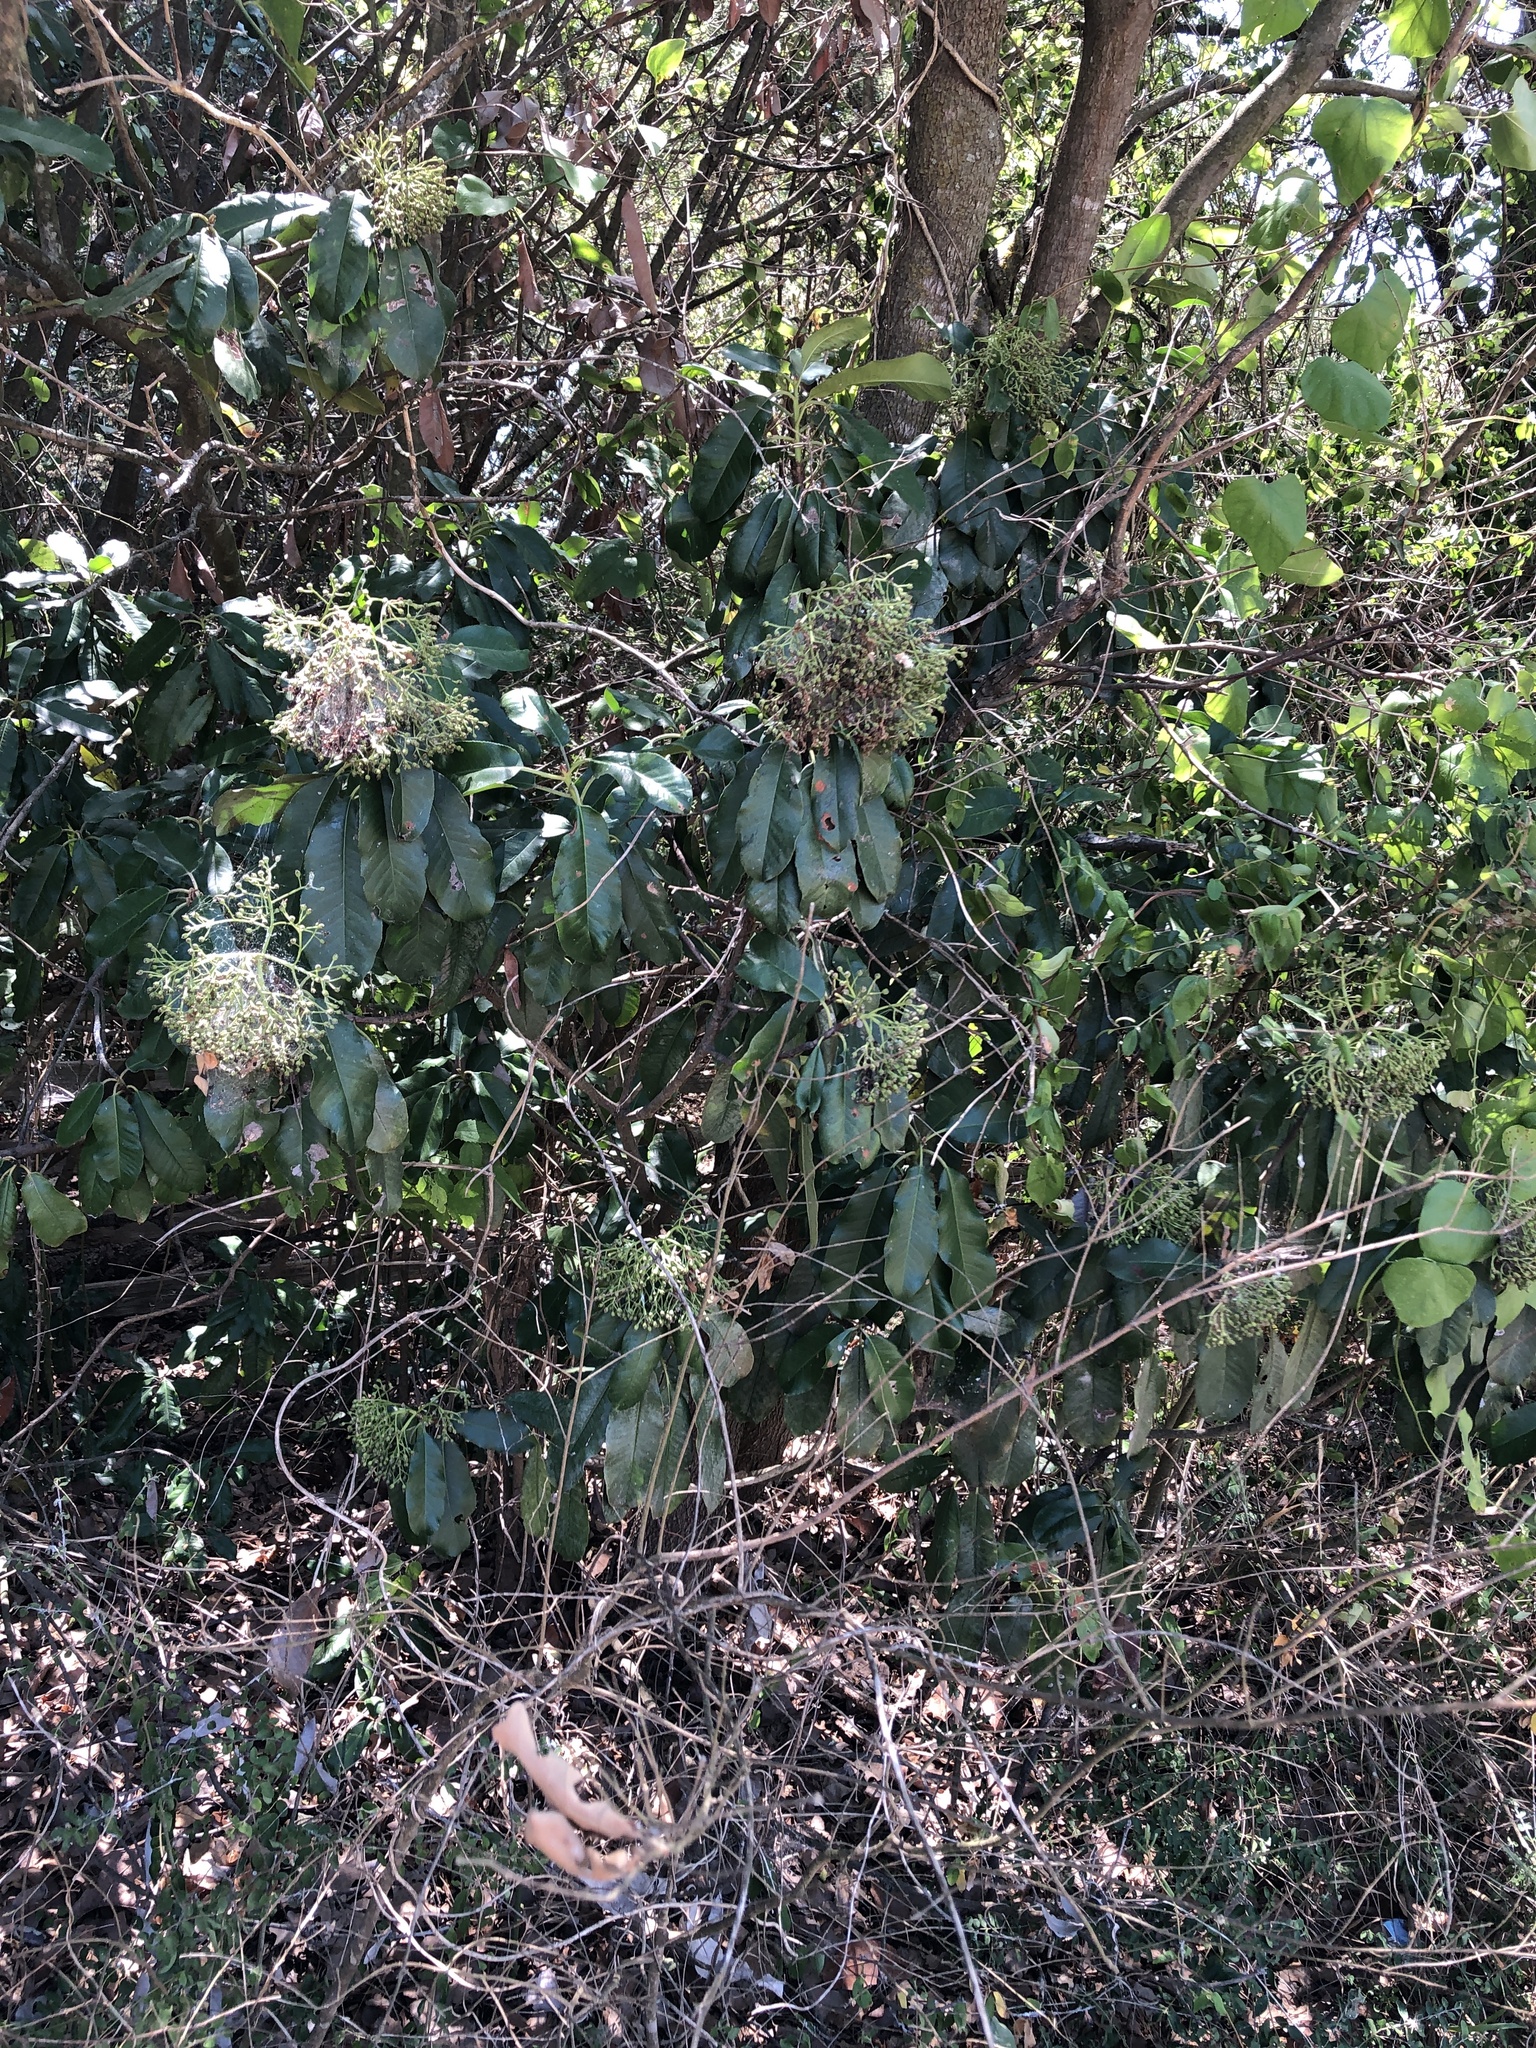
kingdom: Plantae
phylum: Tracheophyta
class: Magnoliopsida
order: Rosales
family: Rosaceae
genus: Photinia
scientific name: Photinia serratifolia
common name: Taiwanese photinia
